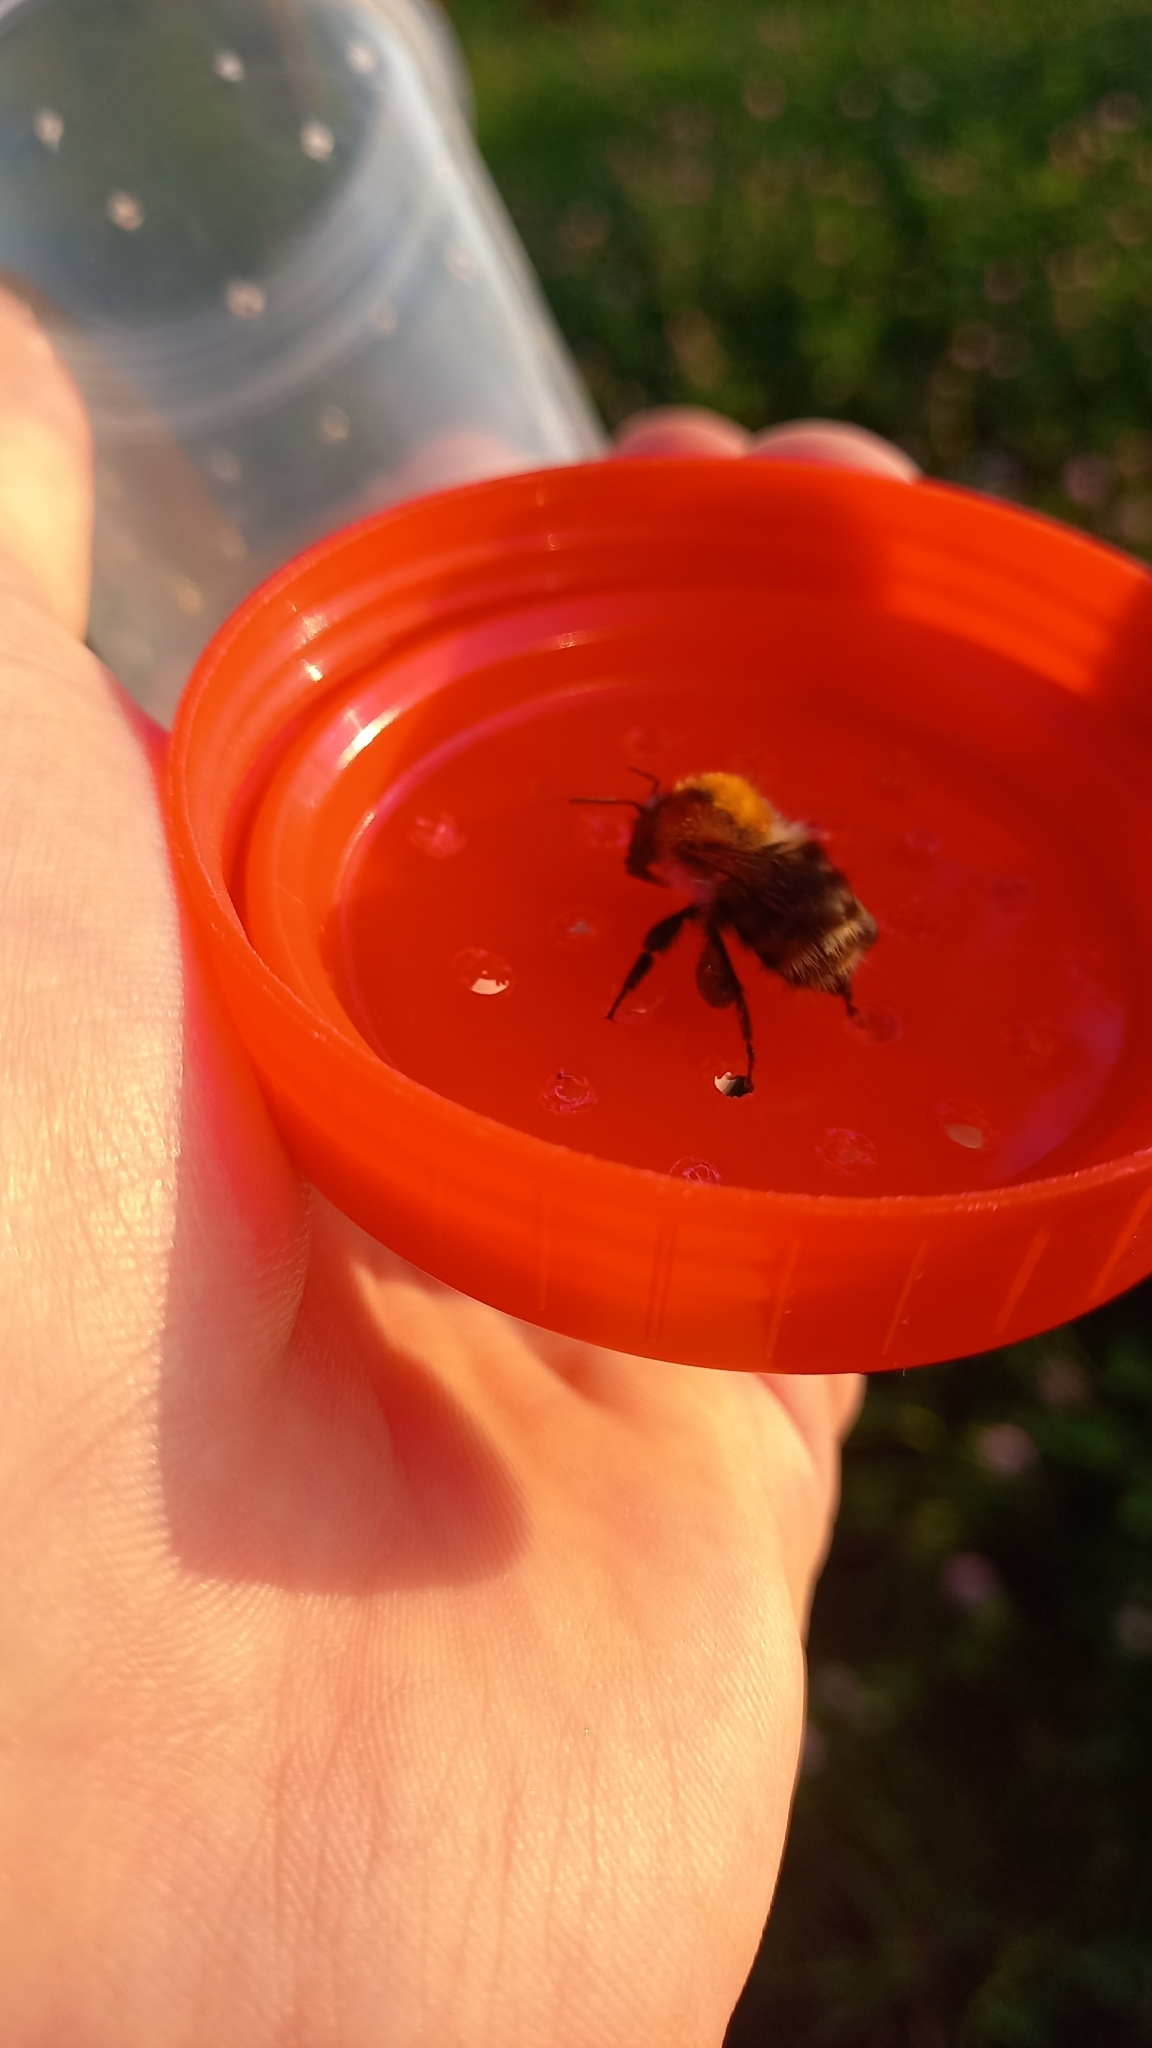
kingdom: Animalia
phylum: Arthropoda
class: Insecta
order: Hymenoptera
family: Apidae
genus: Bombus
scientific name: Bombus pascuorum
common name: Common carder bee
